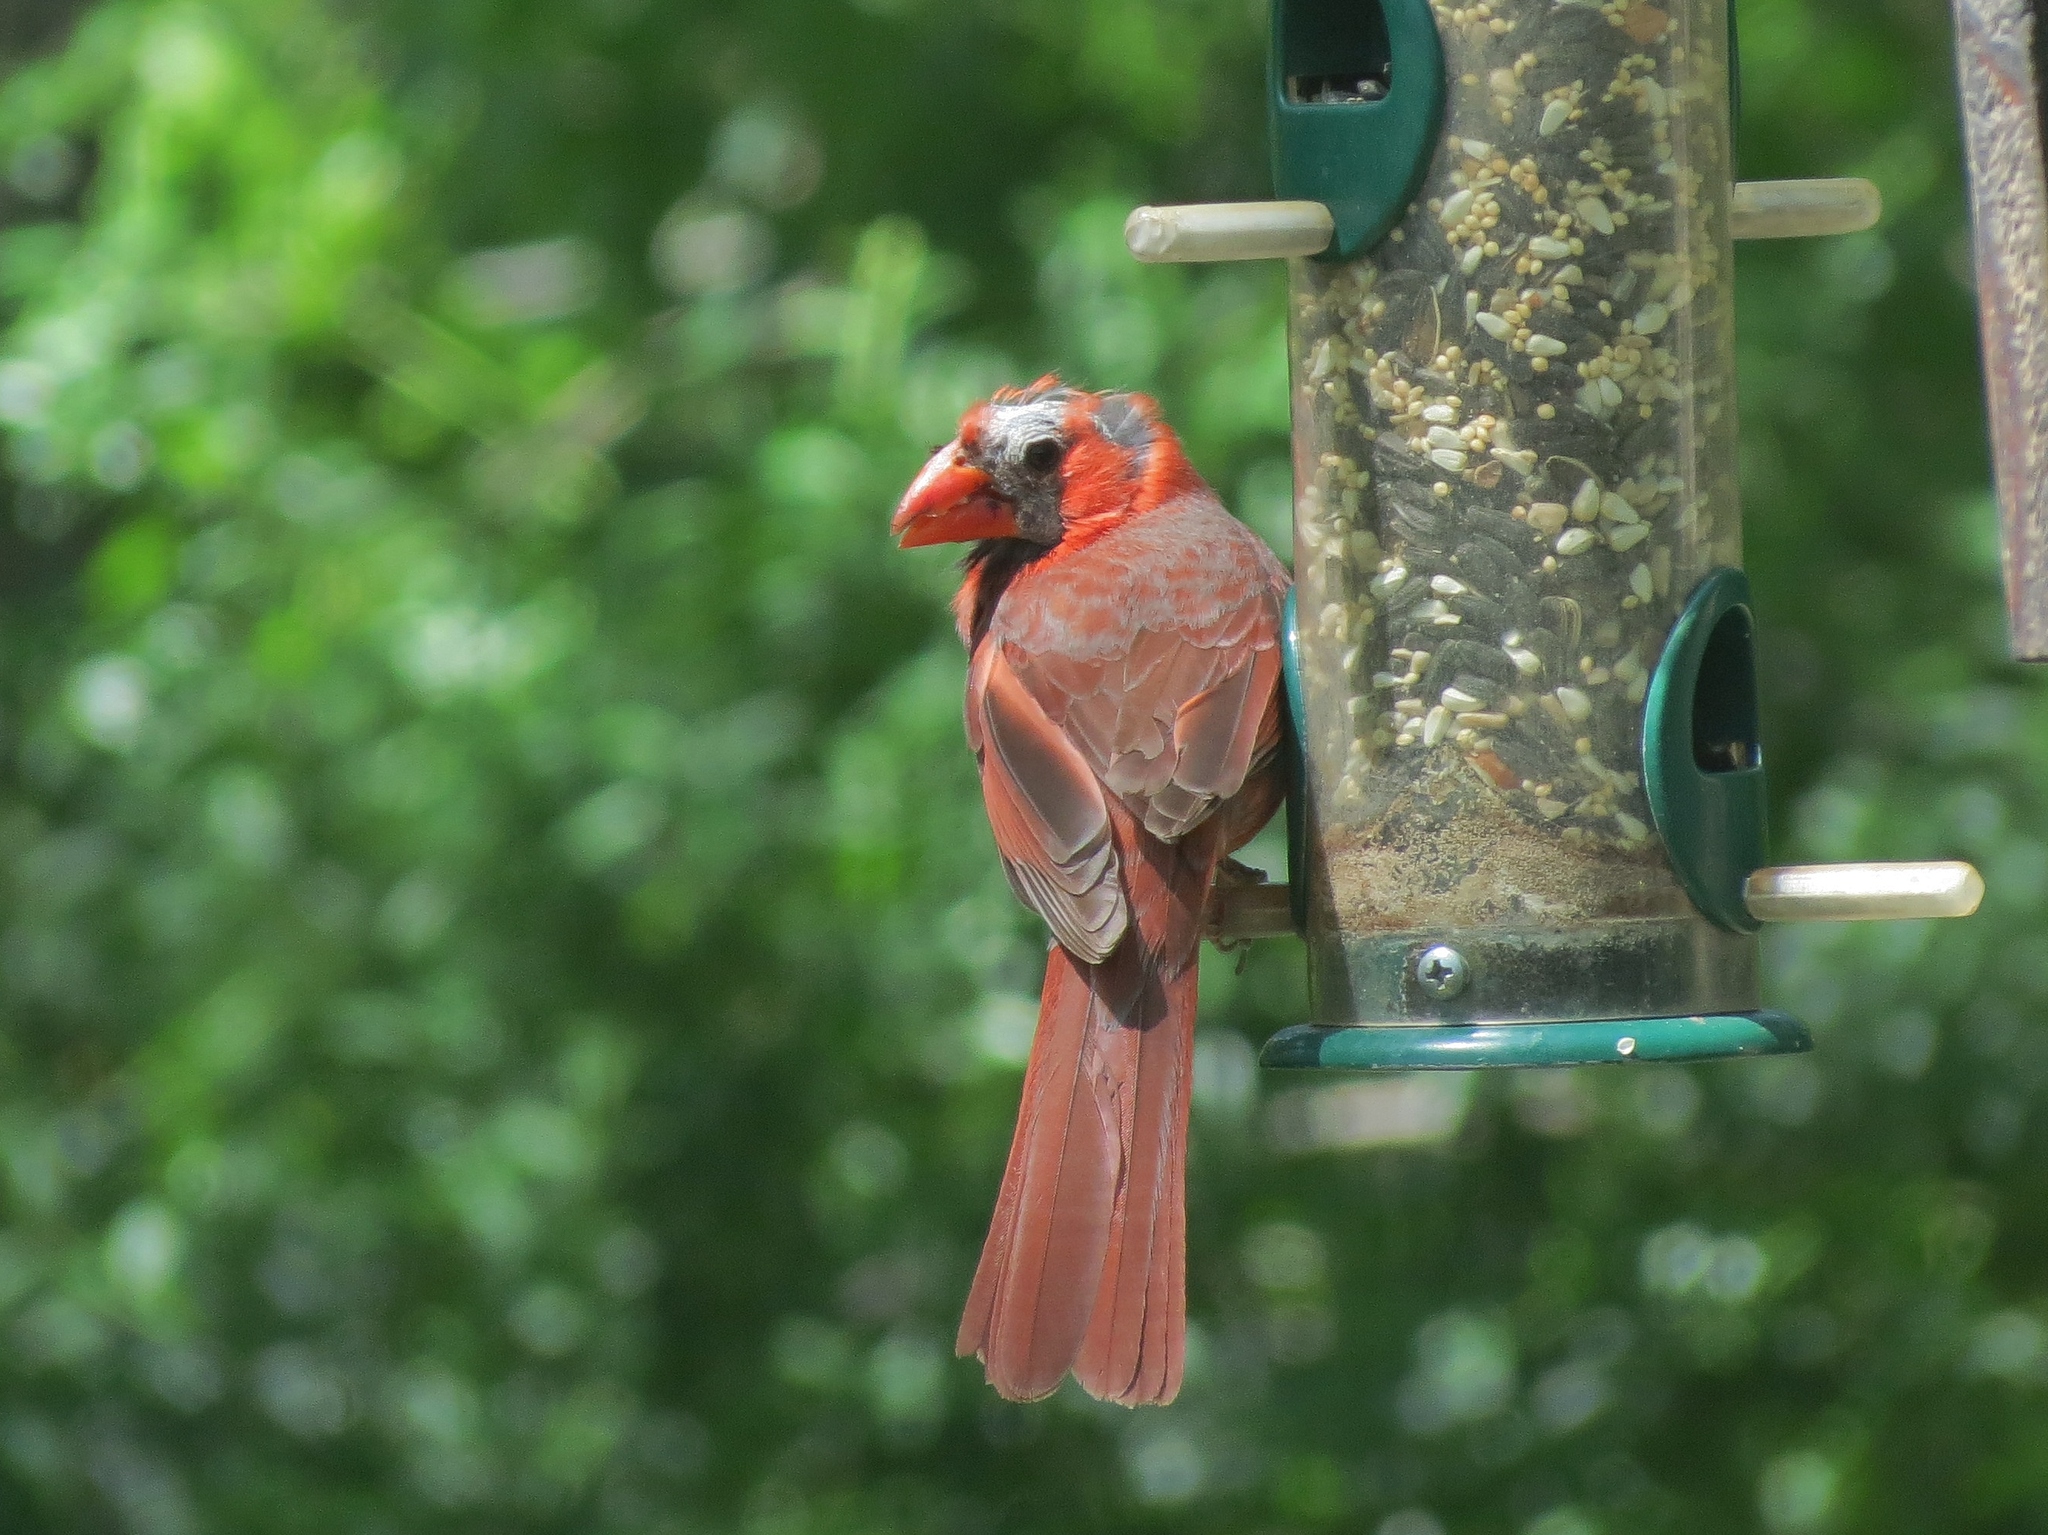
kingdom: Animalia
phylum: Chordata
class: Aves
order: Passeriformes
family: Cardinalidae
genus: Cardinalis
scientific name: Cardinalis cardinalis
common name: Northern cardinal
